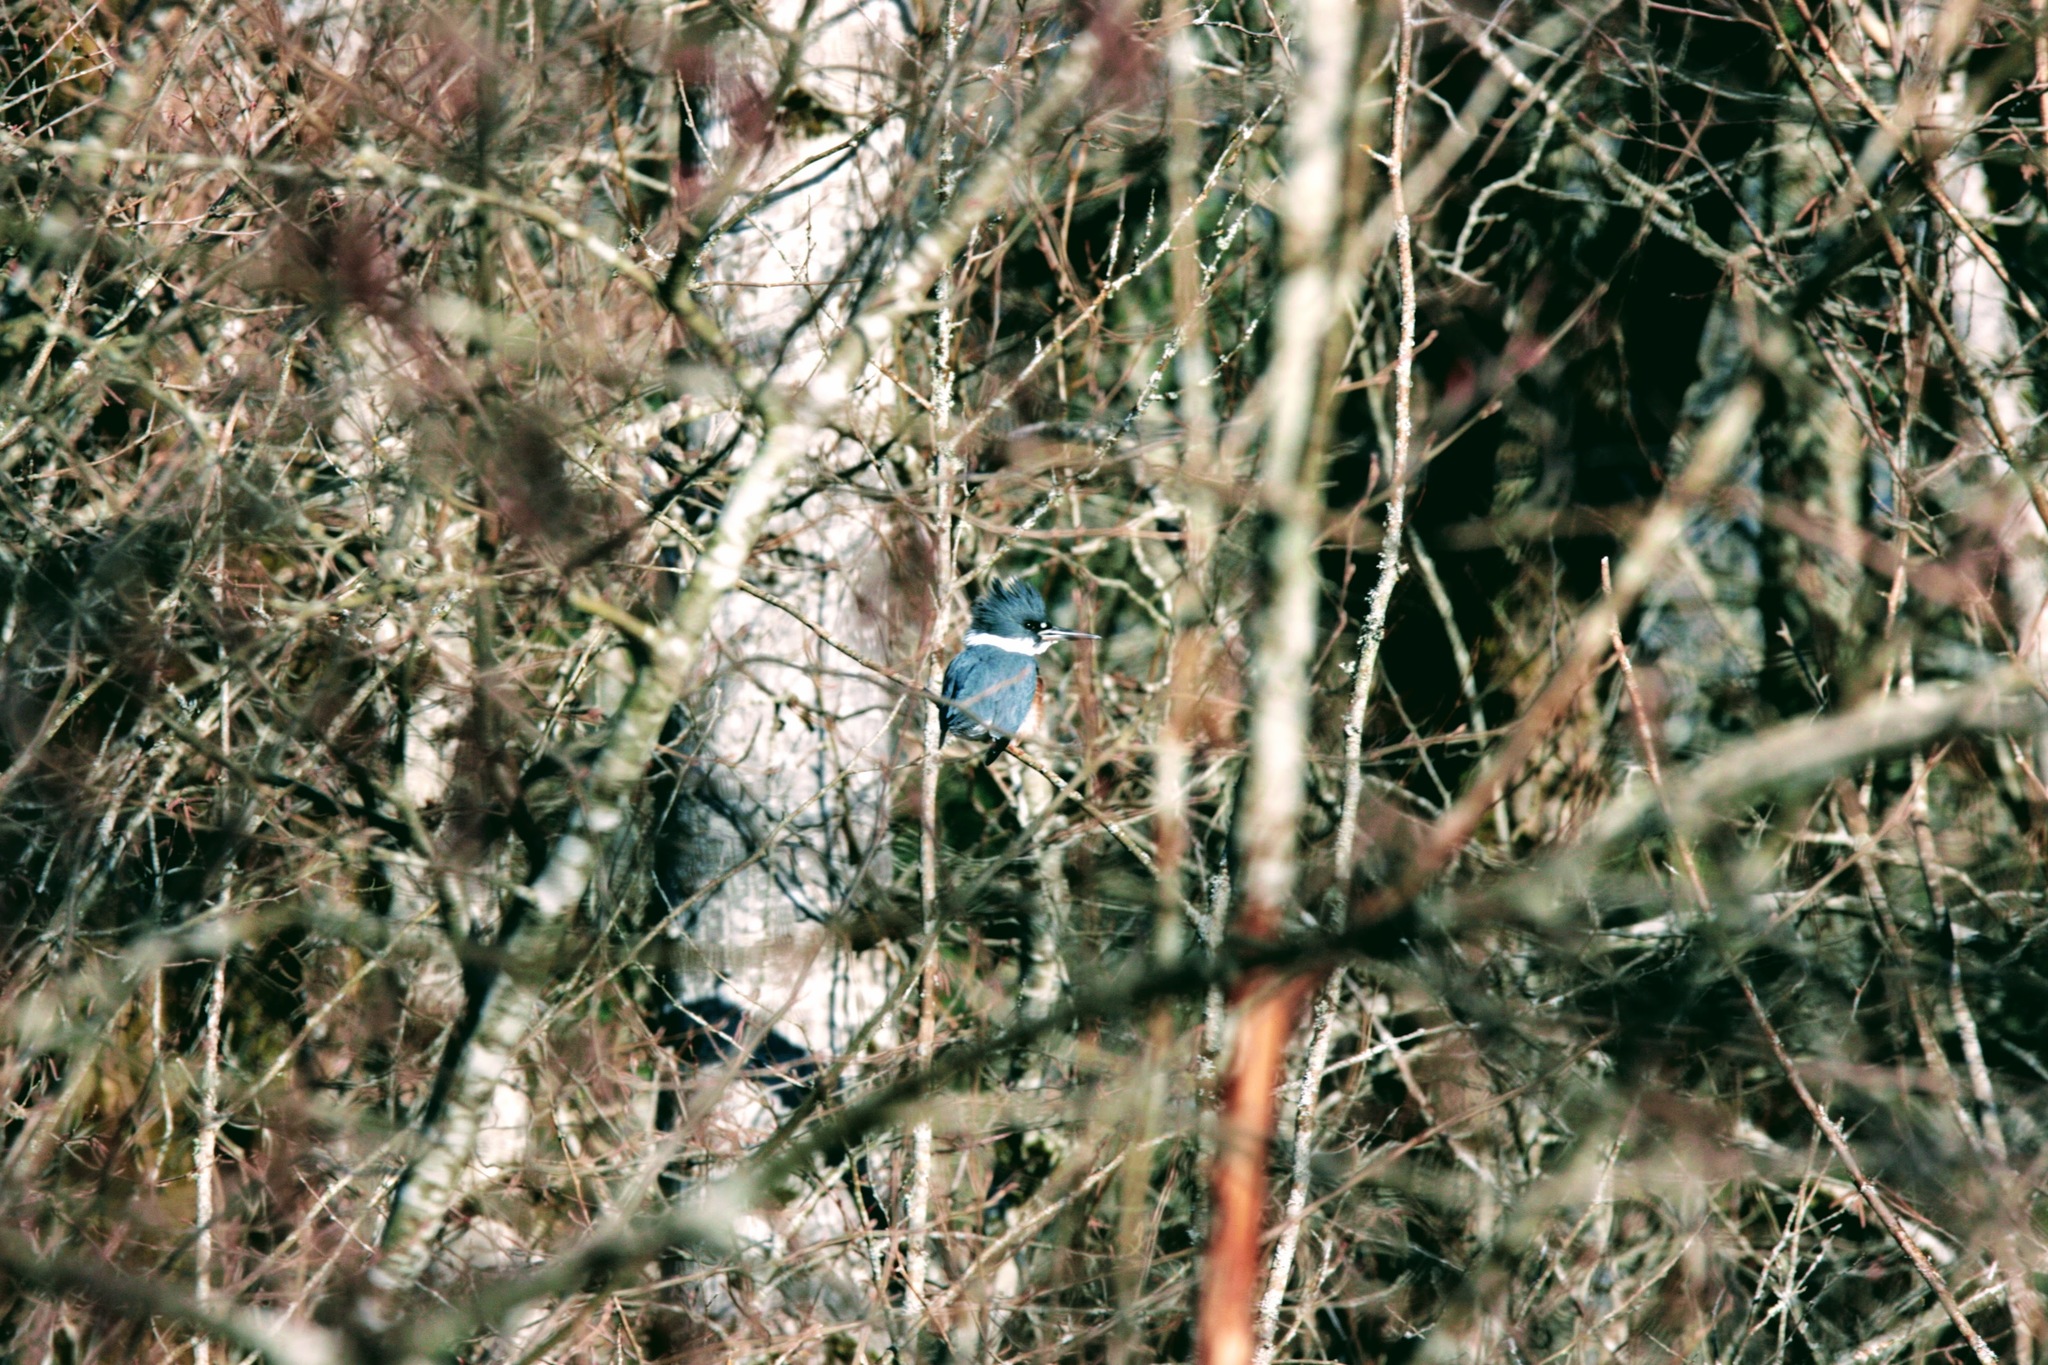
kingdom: Animalia
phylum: Chordata
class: Aves
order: Coraciiformes
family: Alcedinidae
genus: Megaceryle
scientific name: Megaceryle alcyon
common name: Belted kingfisher
